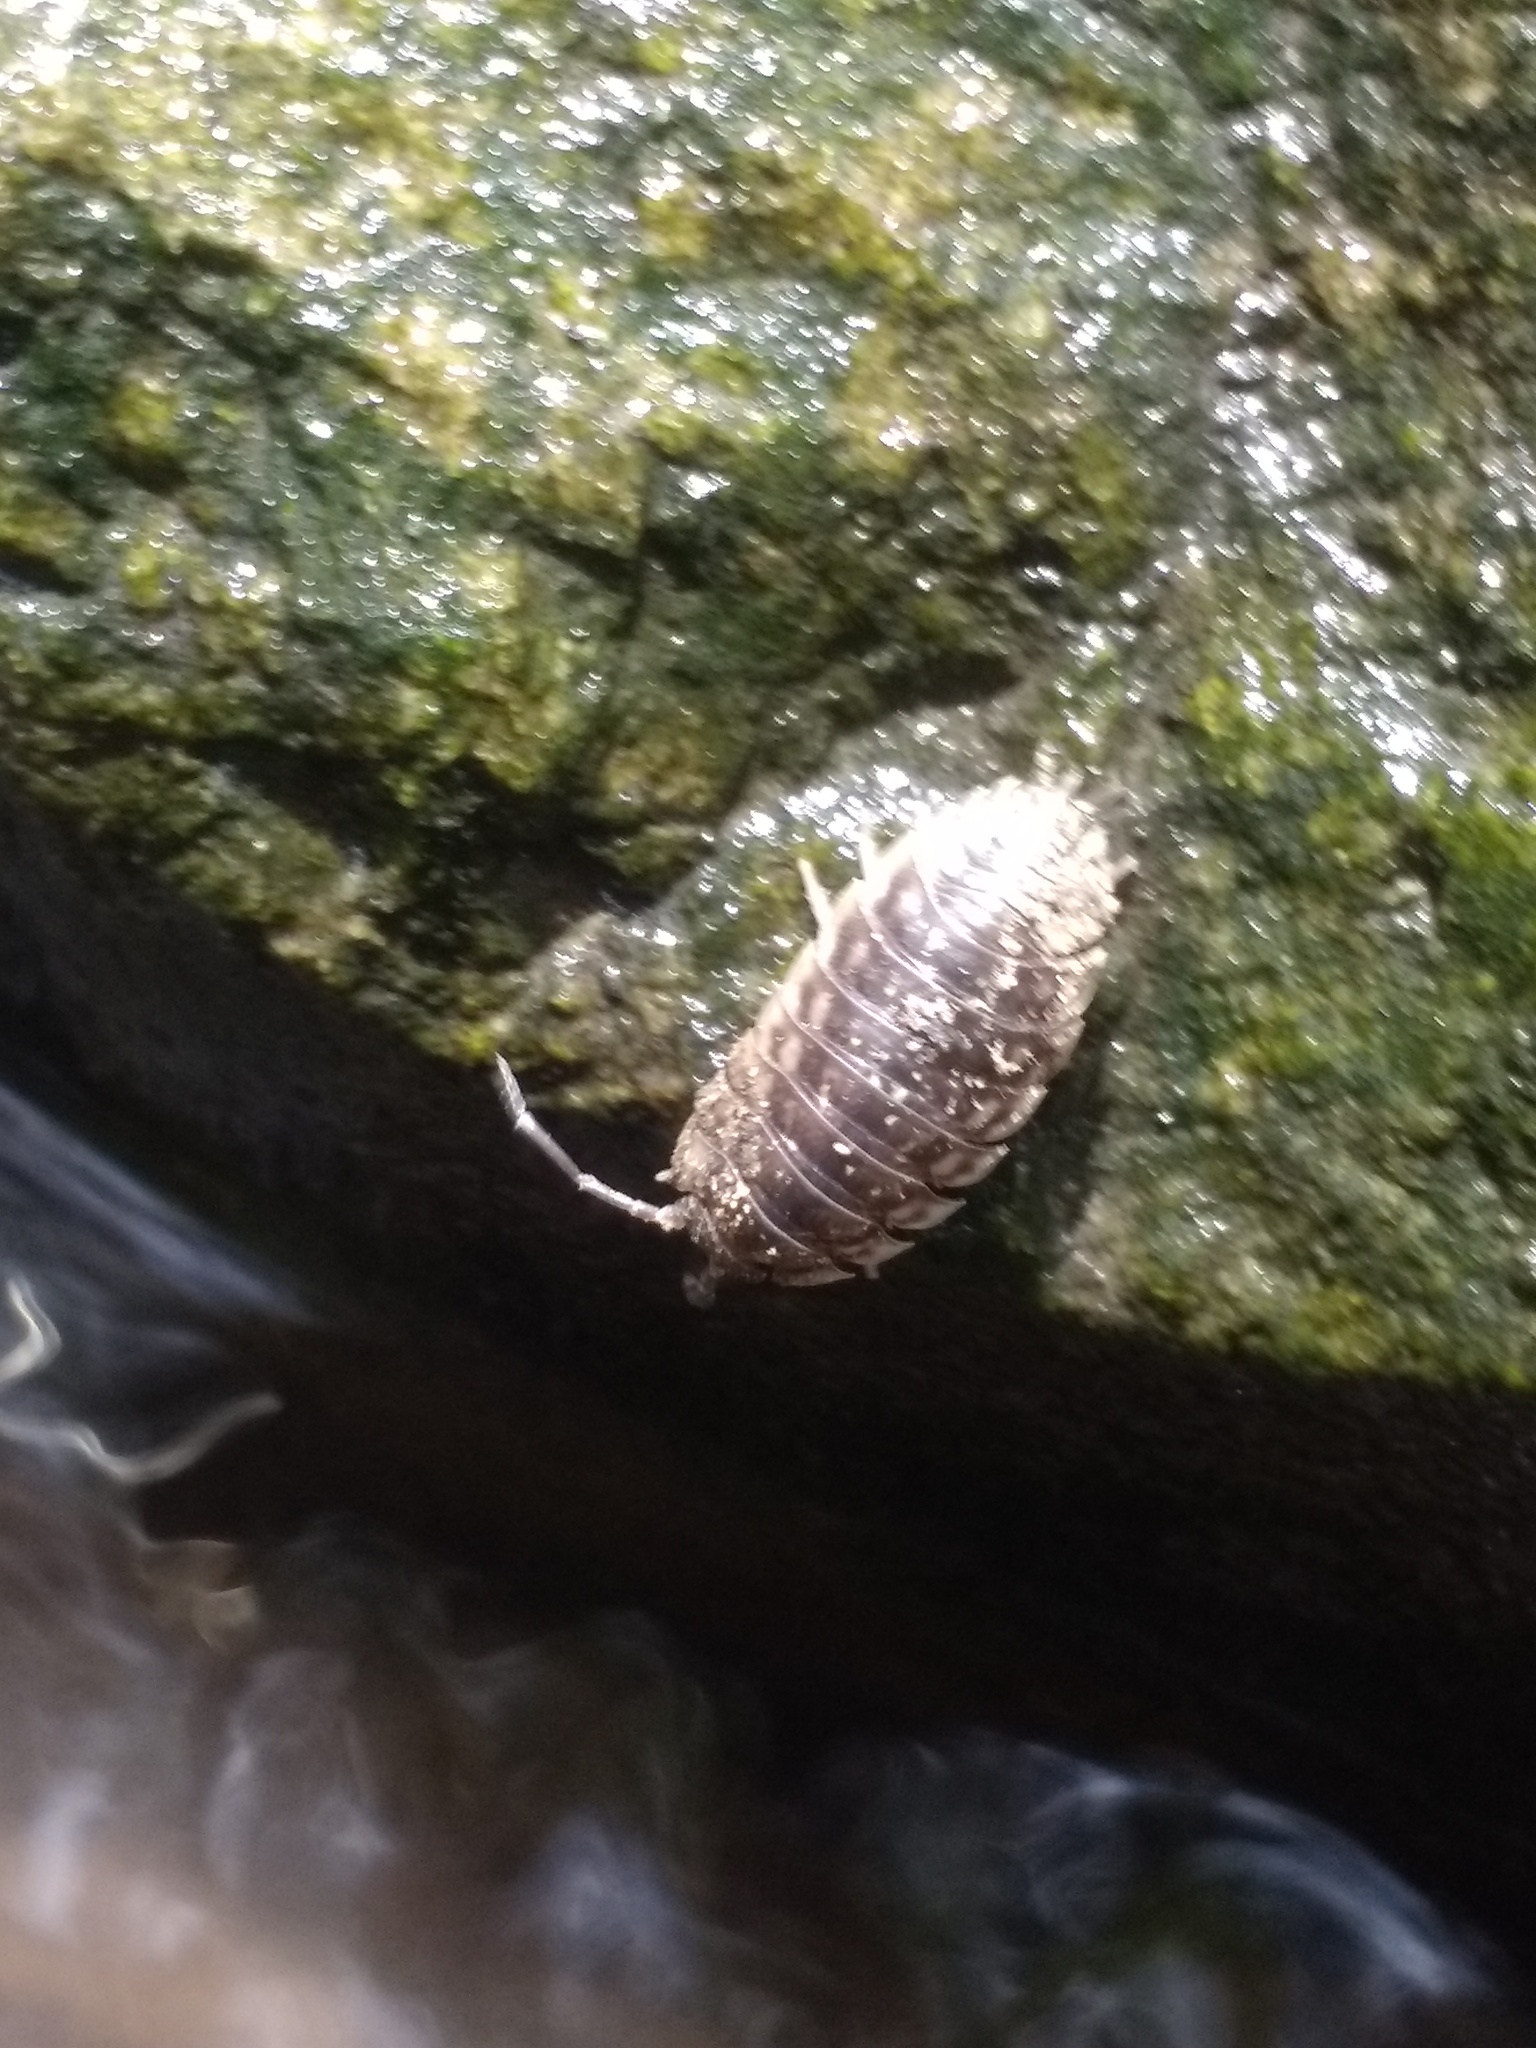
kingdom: Animalia
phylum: Arthropoda
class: Malacostraca
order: Isopoda
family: Oniscidae
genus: Oniscus
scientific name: Oniscus asellus
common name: Common shiny woodlouse
